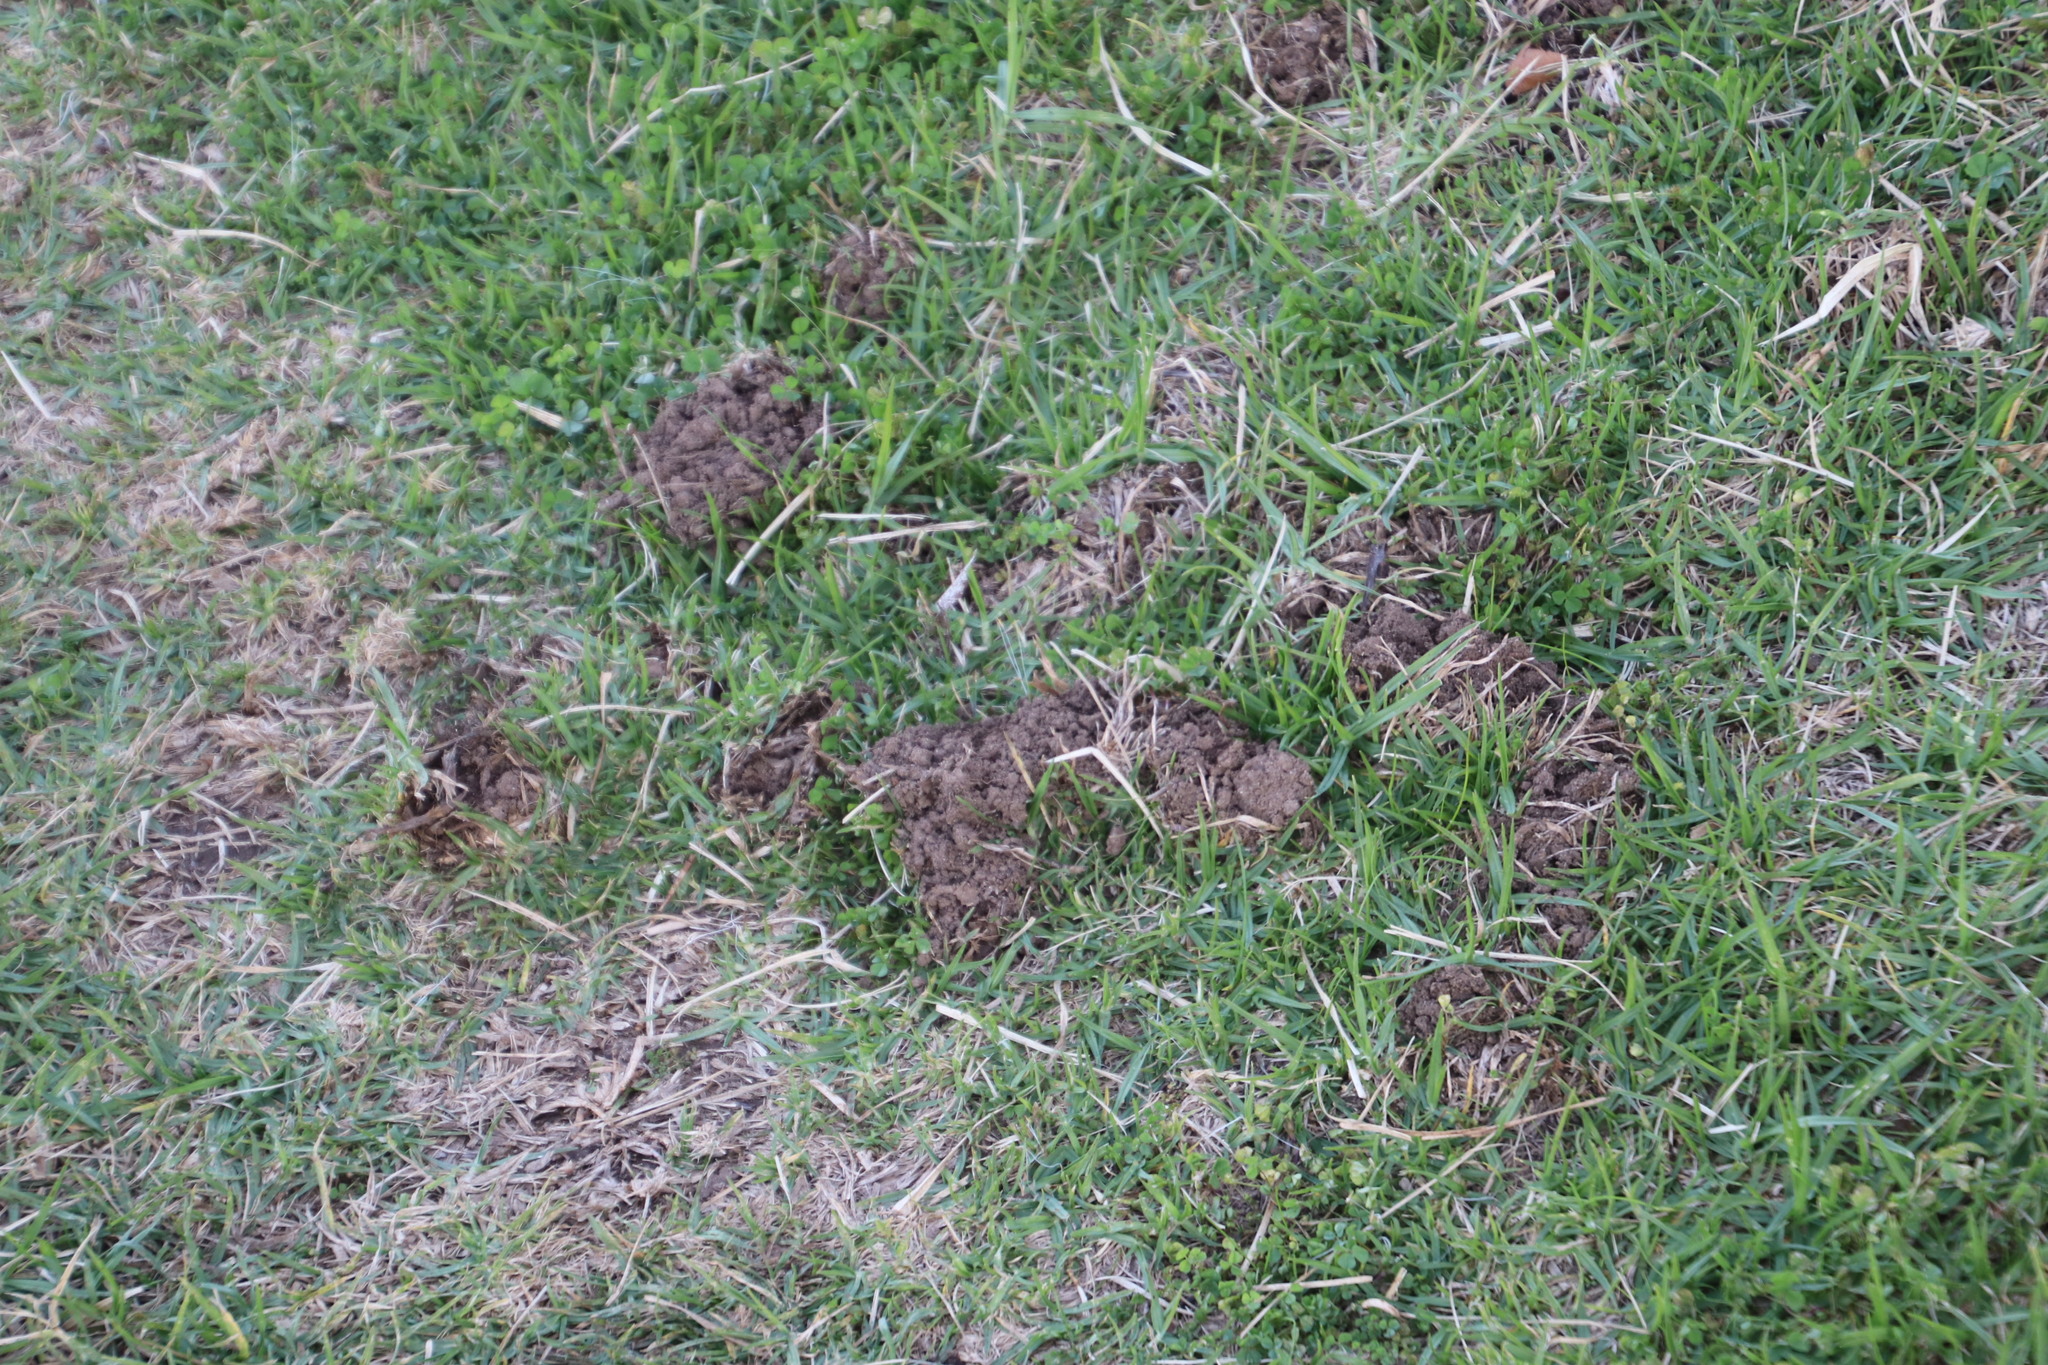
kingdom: Animalia
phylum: Chordata
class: Mammalia
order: Afrosoricida
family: Chrysochloridae
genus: Chrysochloris
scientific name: Chrysochloris asiatica
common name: Cape golden mole
